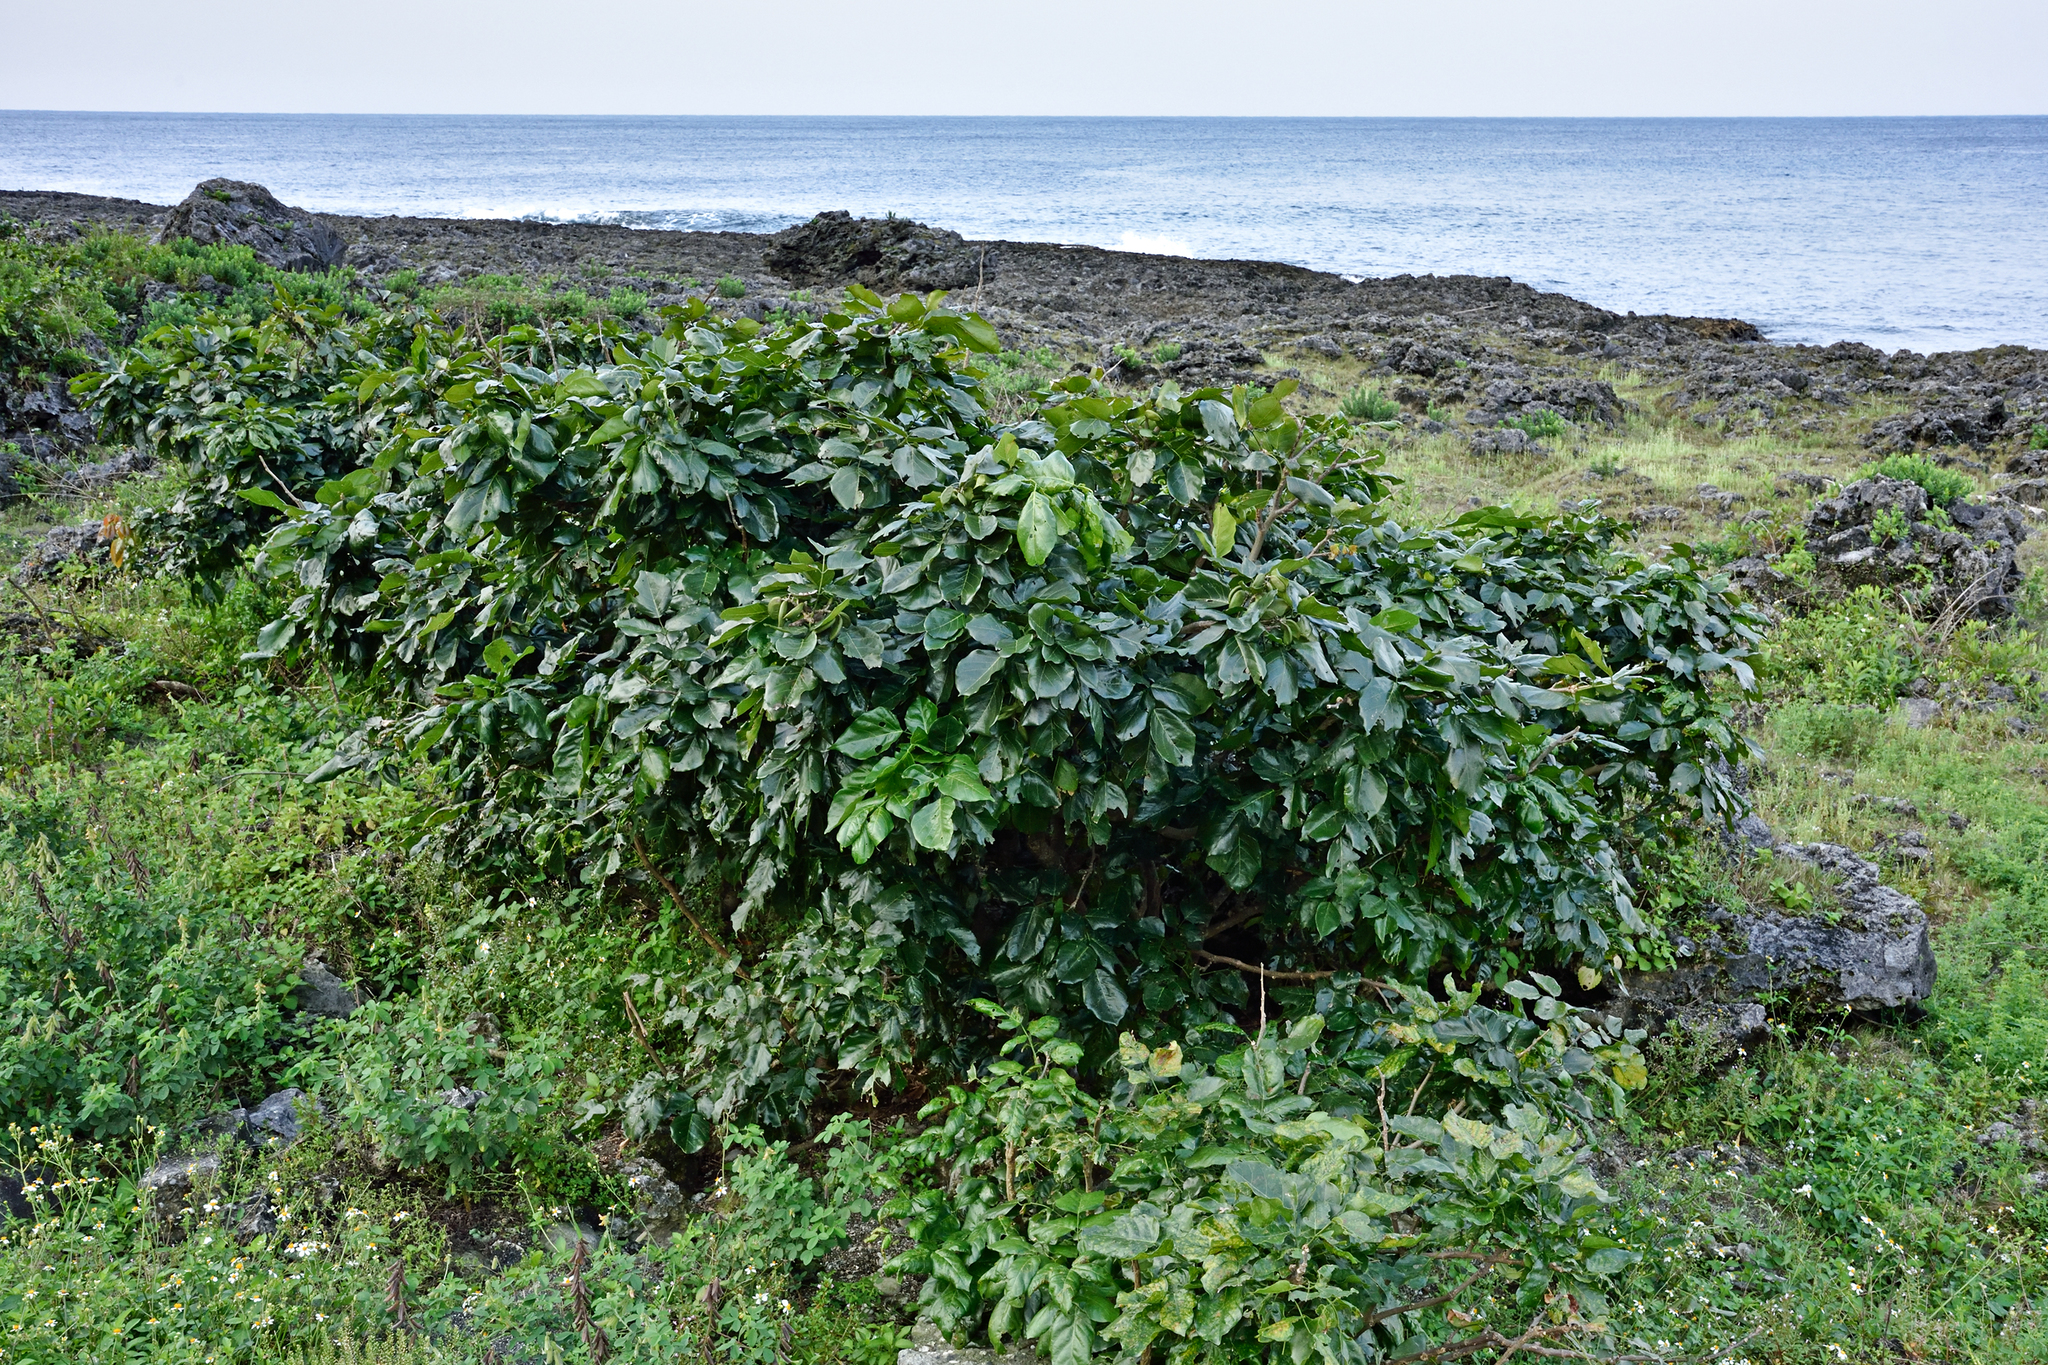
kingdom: Plantae
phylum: Tracheophyta
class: Magnoliopsida
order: Fabales
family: Fabaceae
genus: Pongamia
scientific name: Pongamia pinnata
